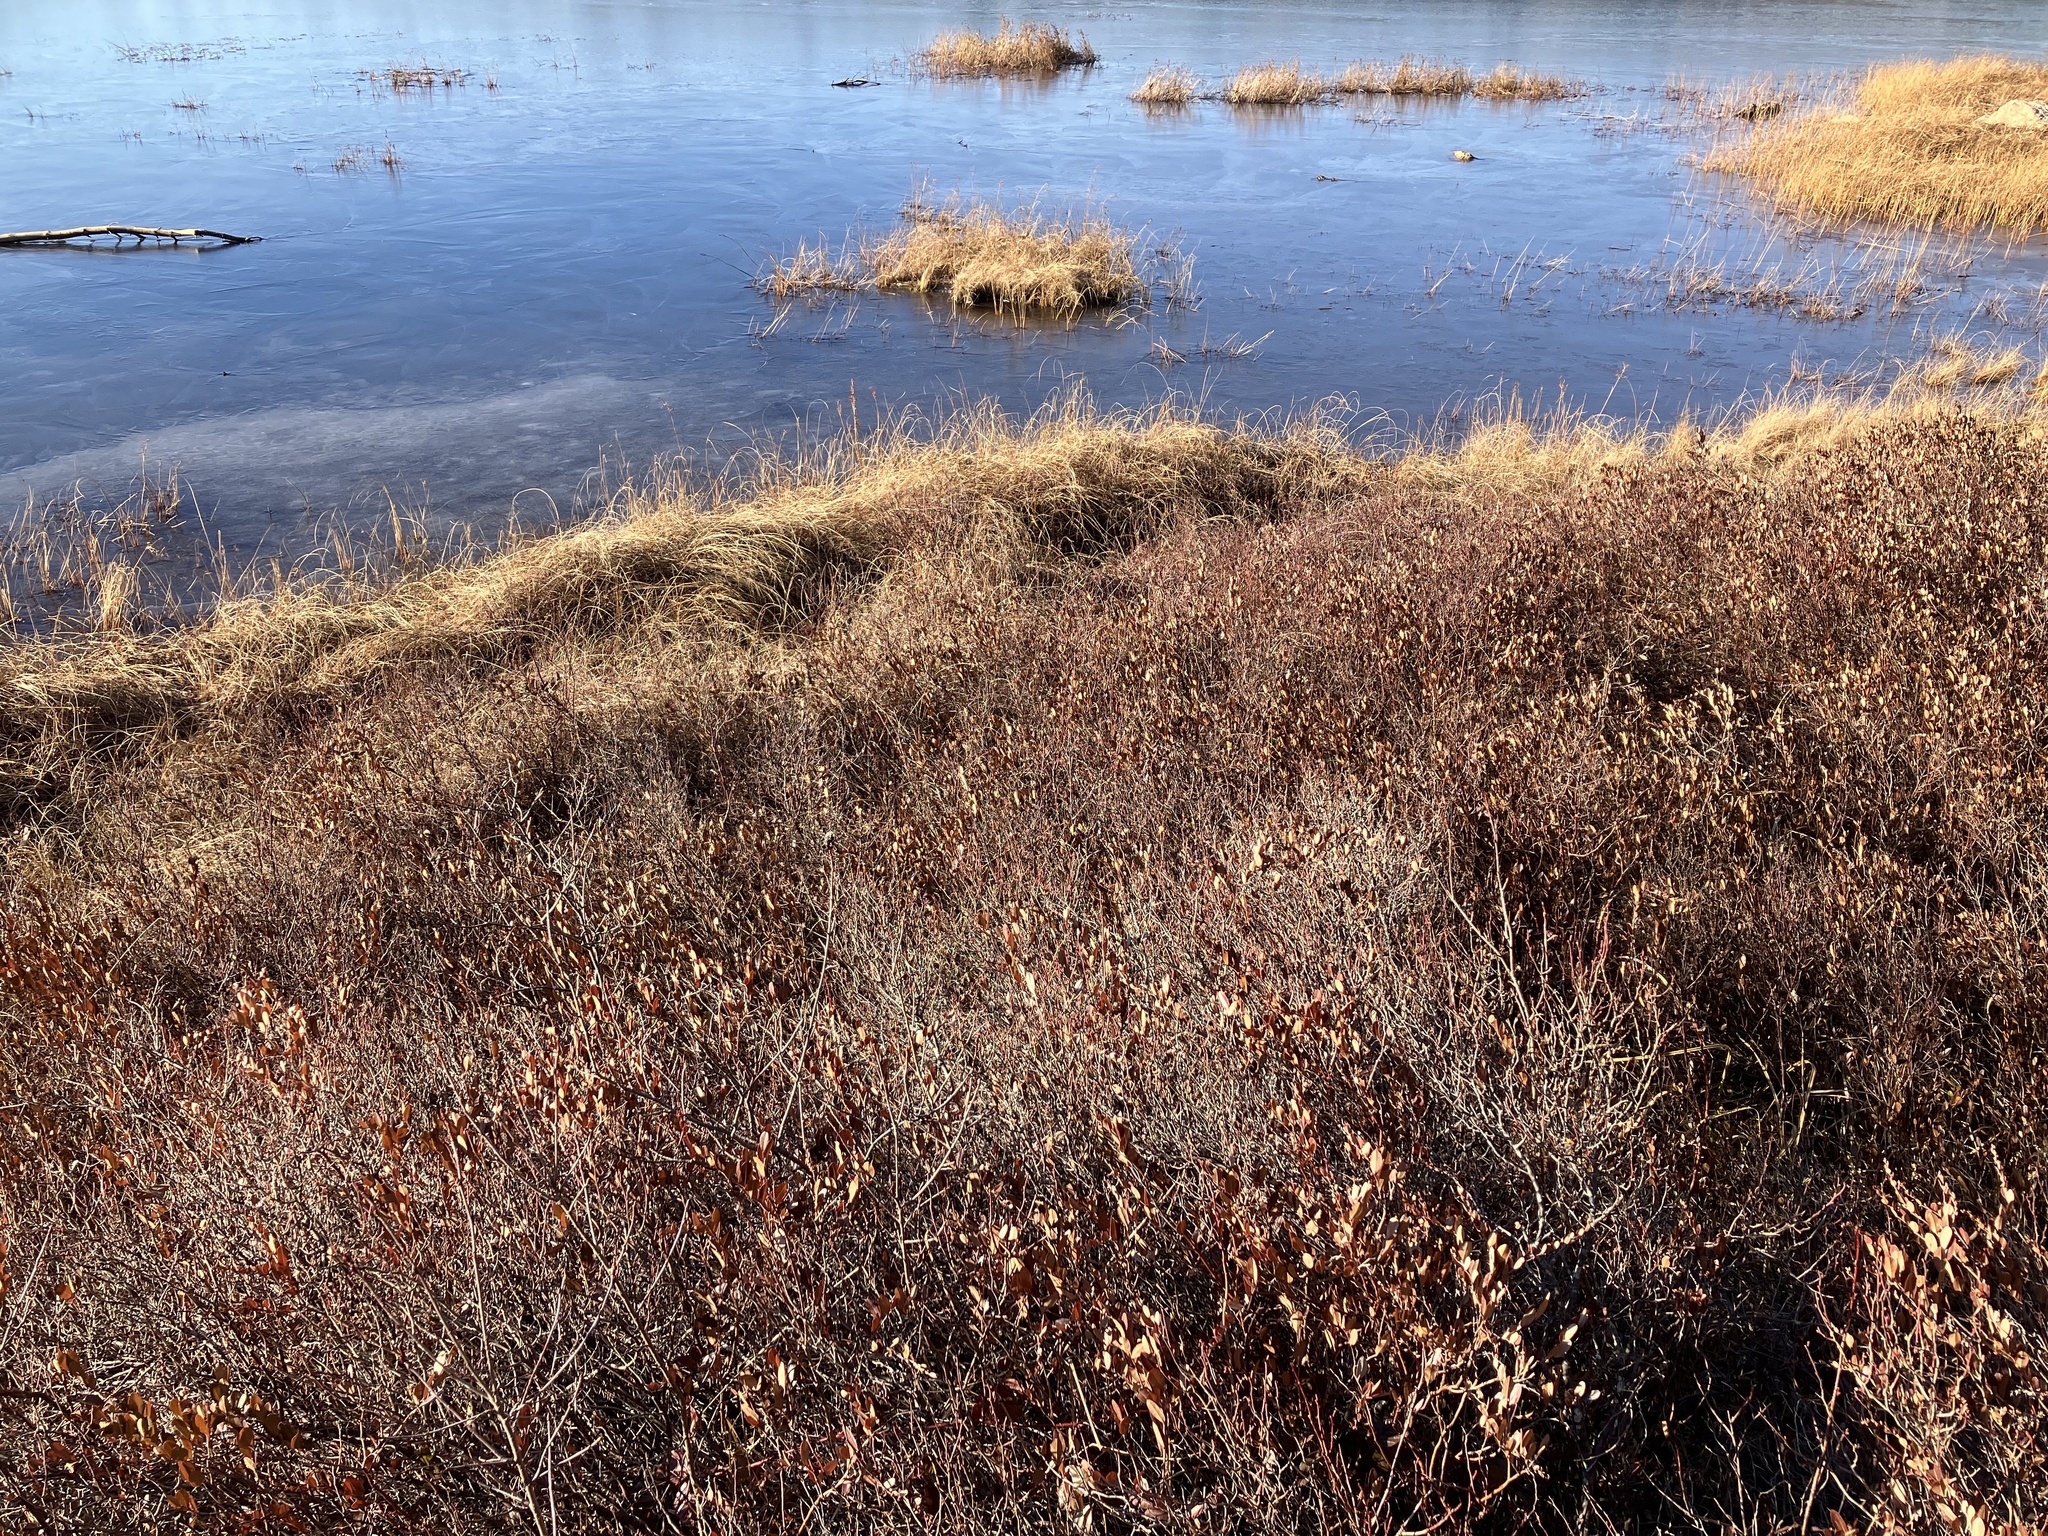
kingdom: Plantae
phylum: Tracheophyta
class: Magnoliopsida
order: Ericales
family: Ericaceae
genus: Chamaedaphne
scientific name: Chamaedaphne calyculata
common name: Leatherleaf
